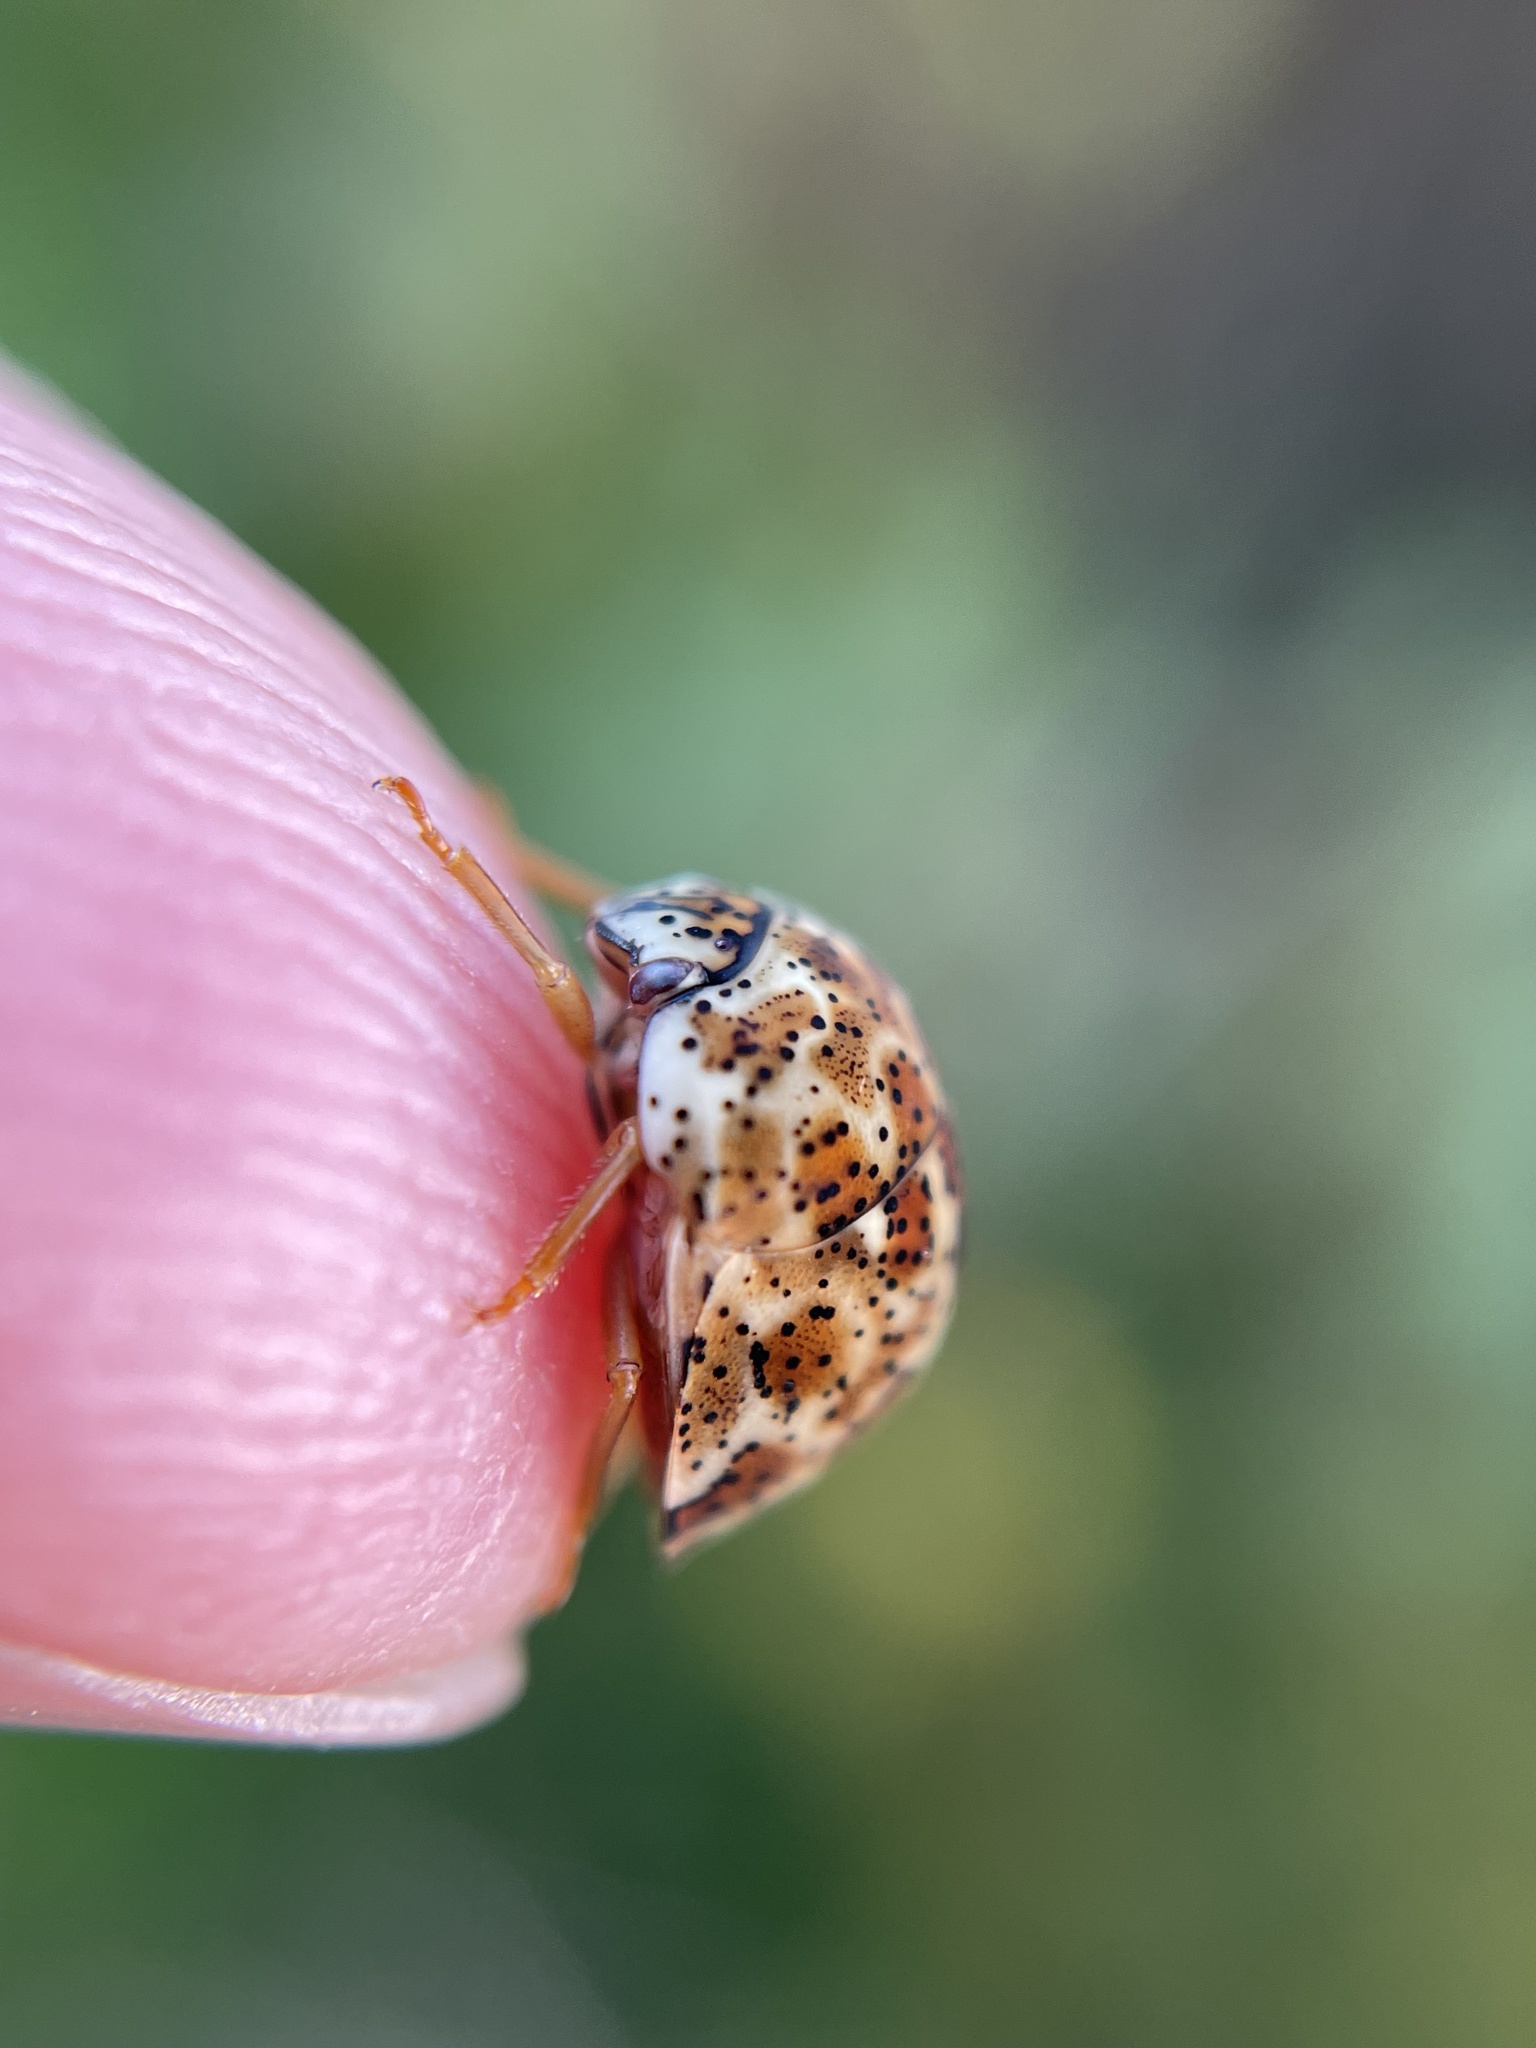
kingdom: Animalia
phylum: Arthropoda
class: Insecta
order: Hemiptera
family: Scutelleridae
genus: Sphaerocoris
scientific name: Sphaerocoris
